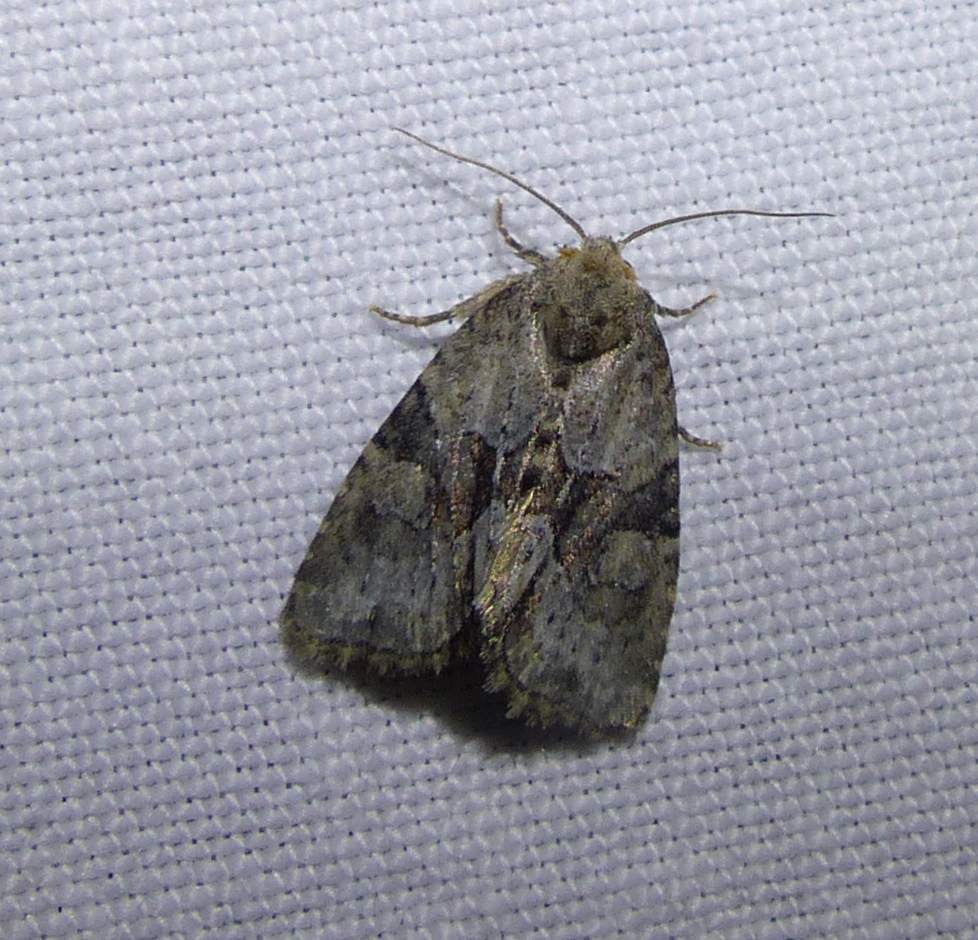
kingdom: Animalia
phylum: Arthropoda
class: Insecta
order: Lepidoptera
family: Noctuidae
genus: Neoligia
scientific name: Neoligia exhausta
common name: Exhausted brocade
